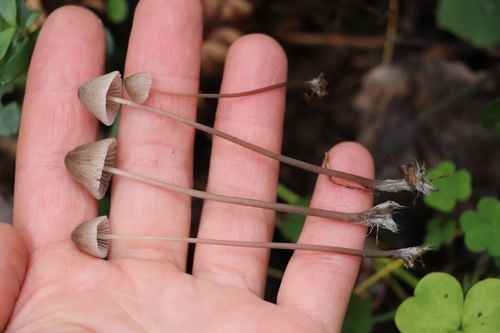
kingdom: Fungi
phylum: Basidiomycota
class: Agaricomycetes
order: Agaricales
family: Mycenaceae
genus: Mycena
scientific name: Mycena mirata
